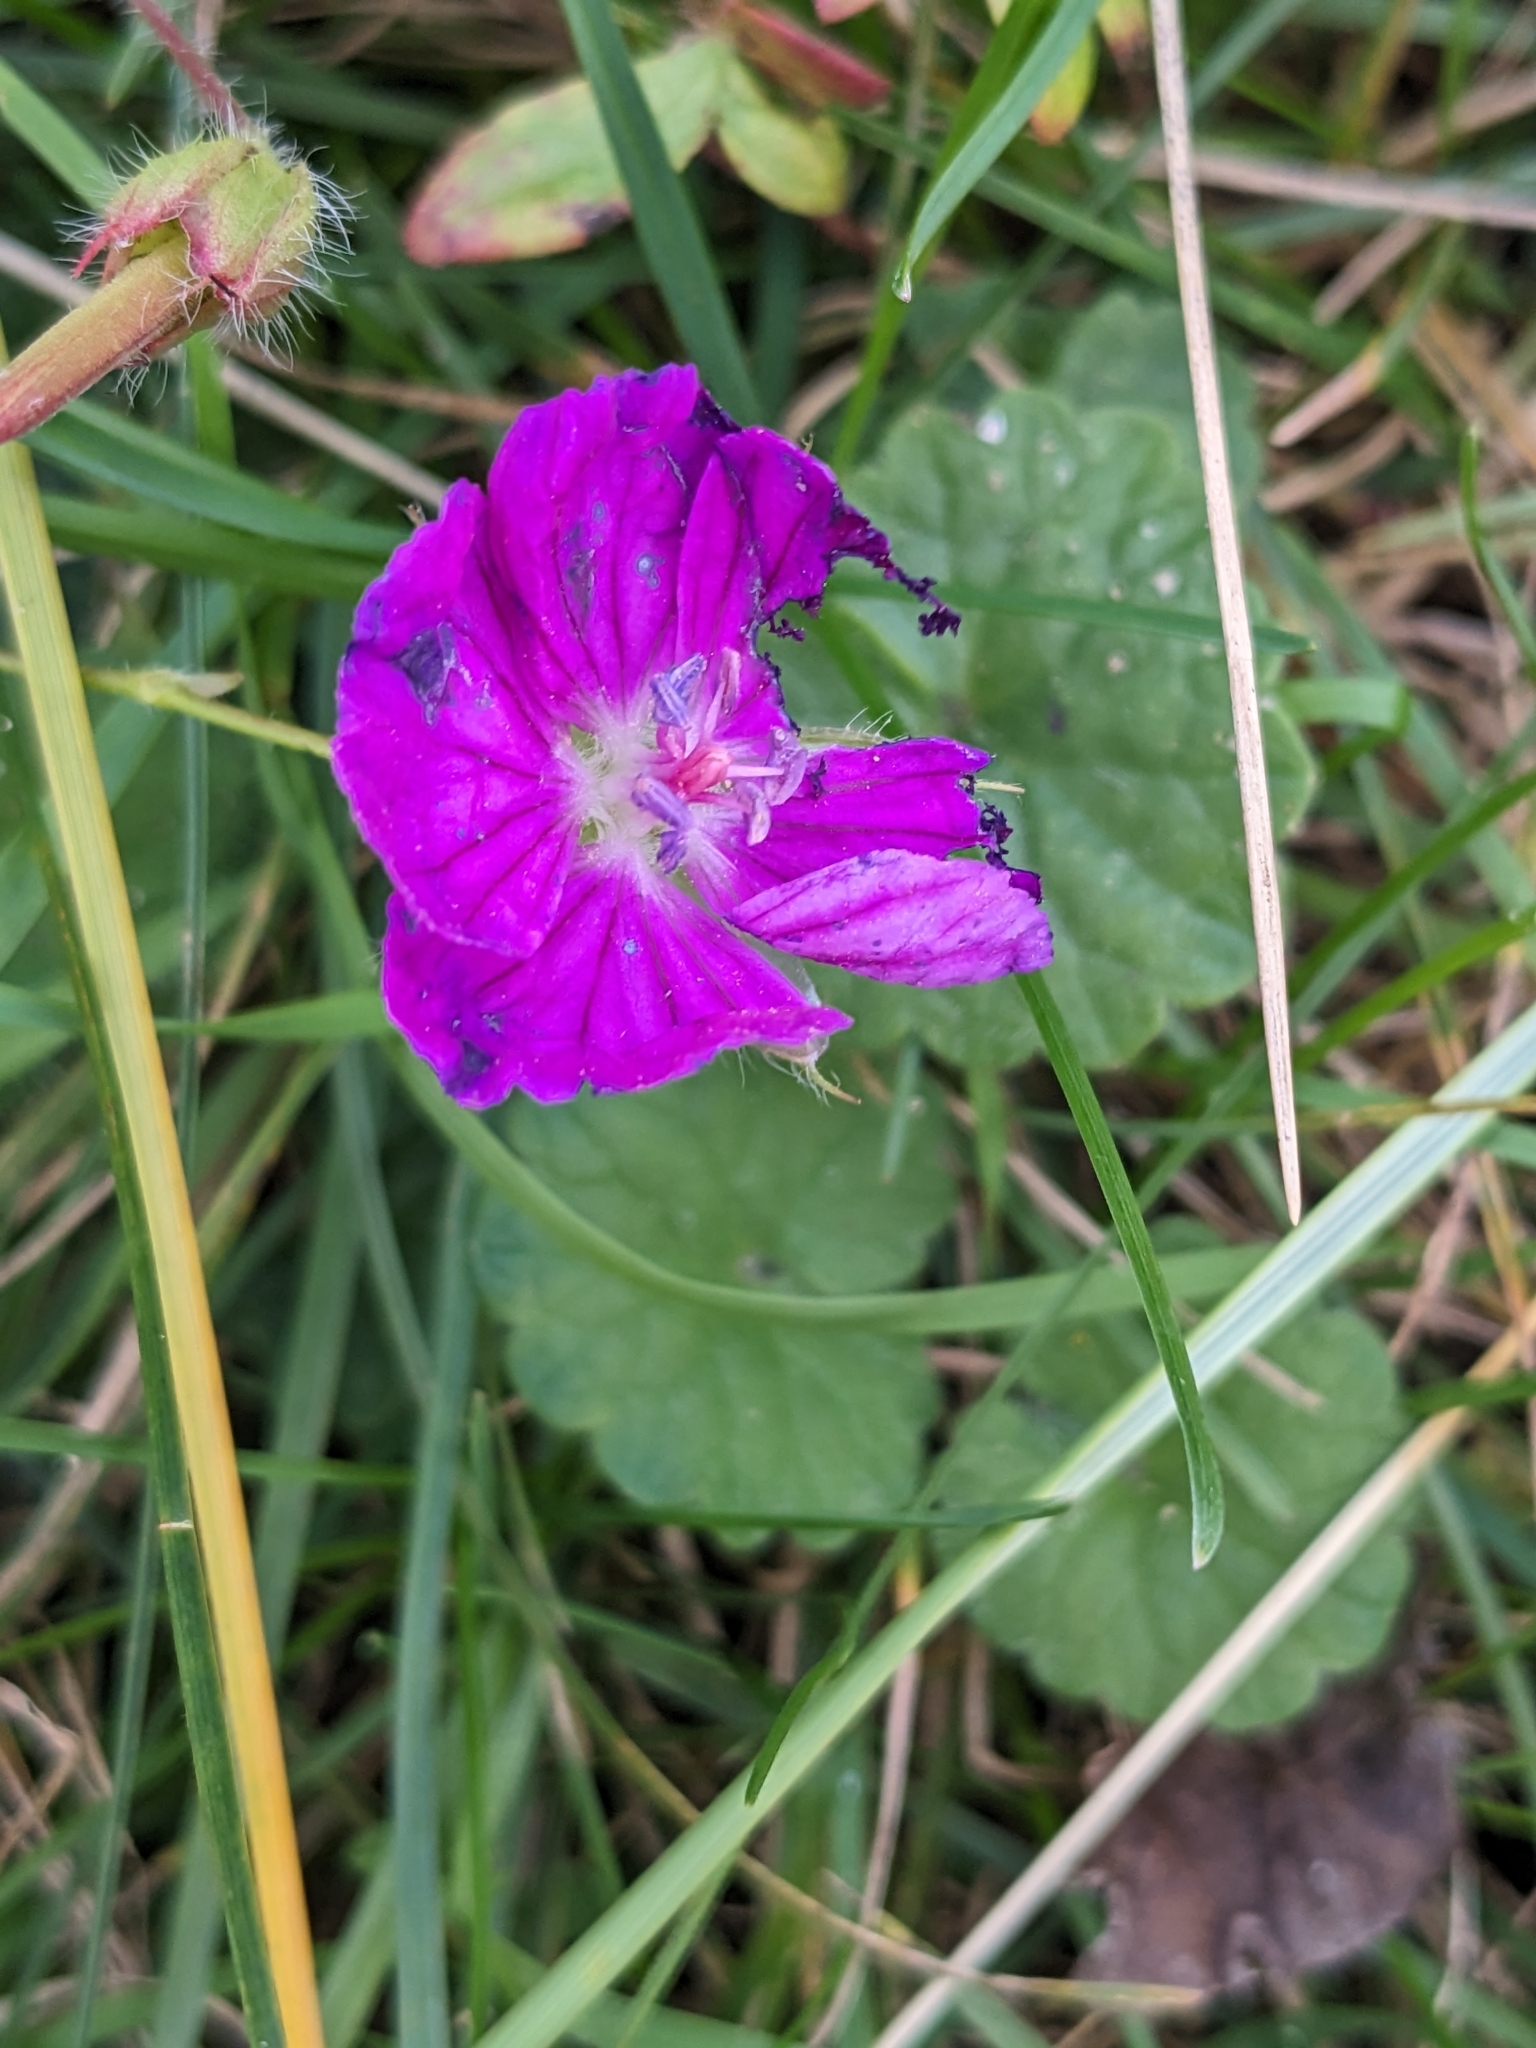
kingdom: Plantae
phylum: Tracheophyta
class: Magnoliopsida
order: Geraniales
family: Geraniaceae
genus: Geranium
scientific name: Geranium sanguineum
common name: Bloody crane's-bill
